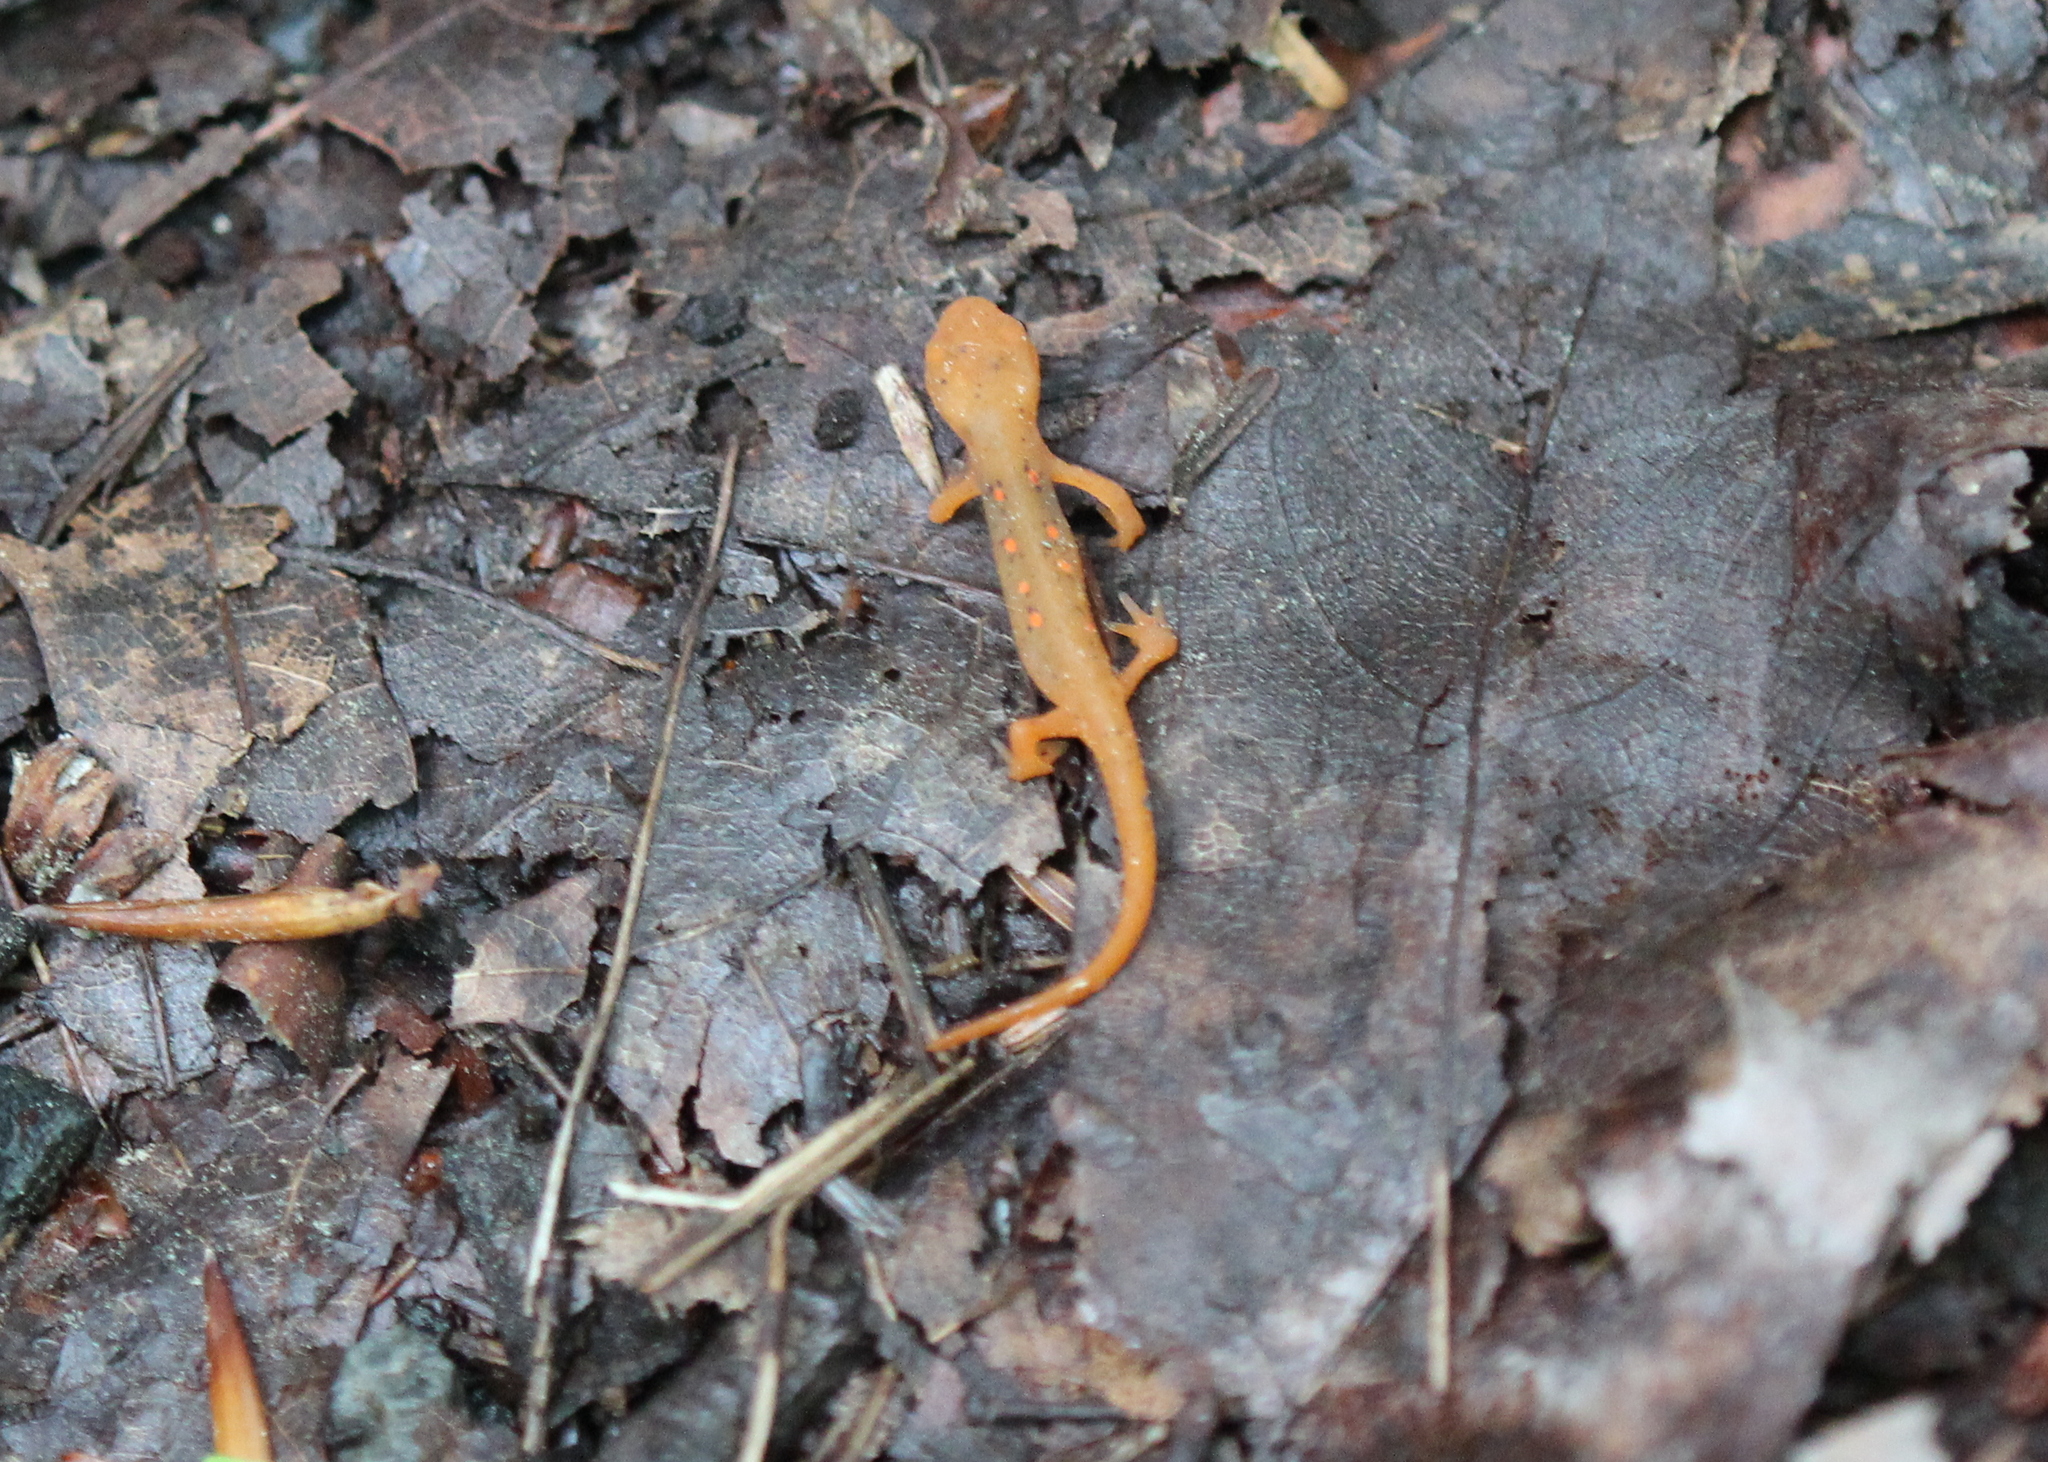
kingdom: Animalia
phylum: Chordata
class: Amphibia
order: Caudata
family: Salamandridae
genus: Notophthalmus
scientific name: Notophthalmus viridescens
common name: Eastern newt
